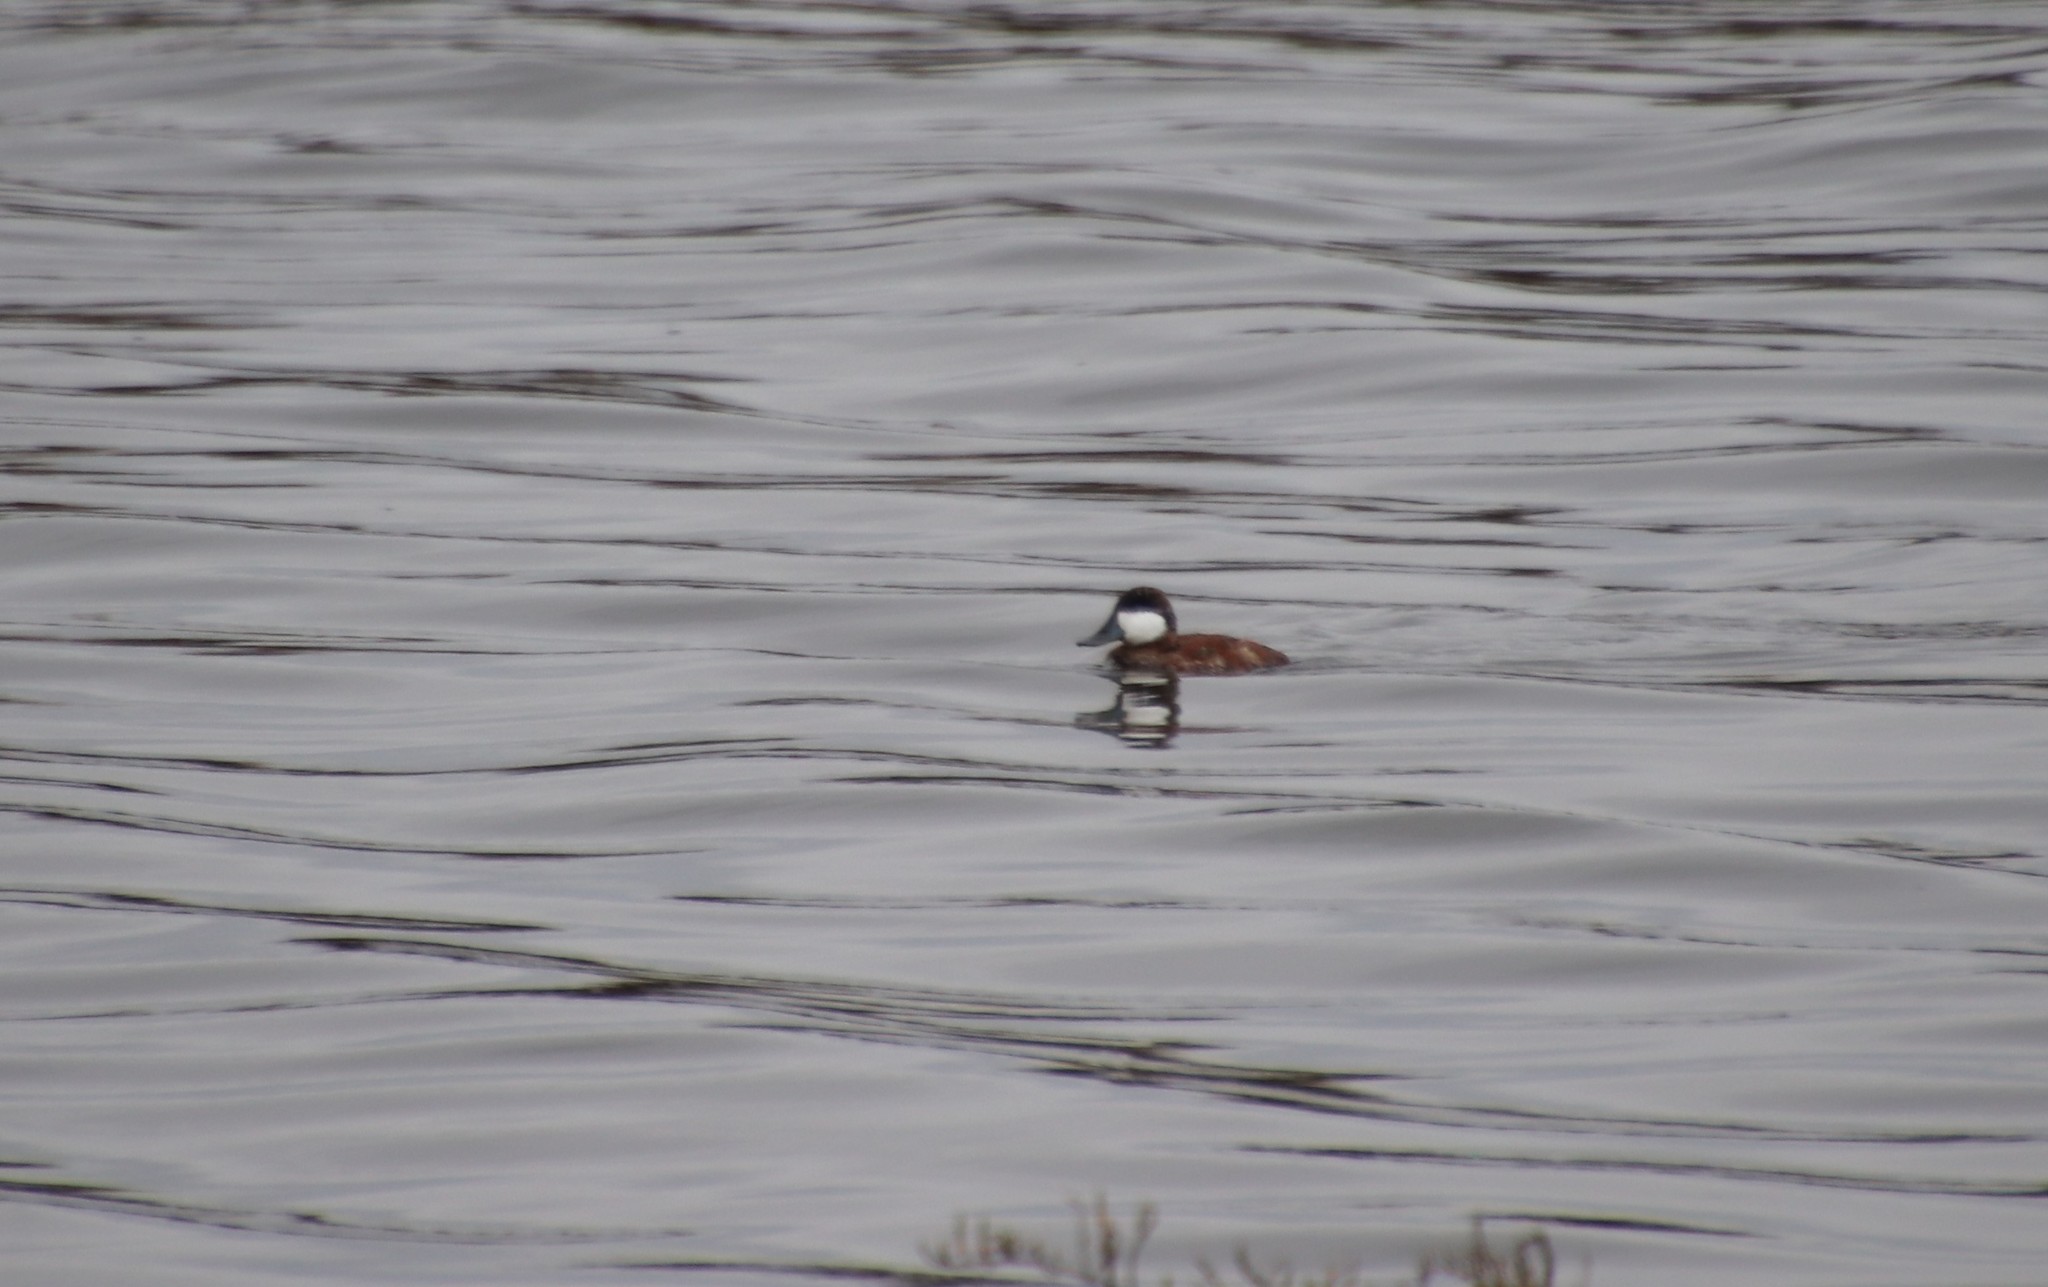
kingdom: Animalia
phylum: Chordata
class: Aves
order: Anseriformes
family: Anatidae
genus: Oxyura
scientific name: Oxyura jamaicensis
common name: Ruddy duck
